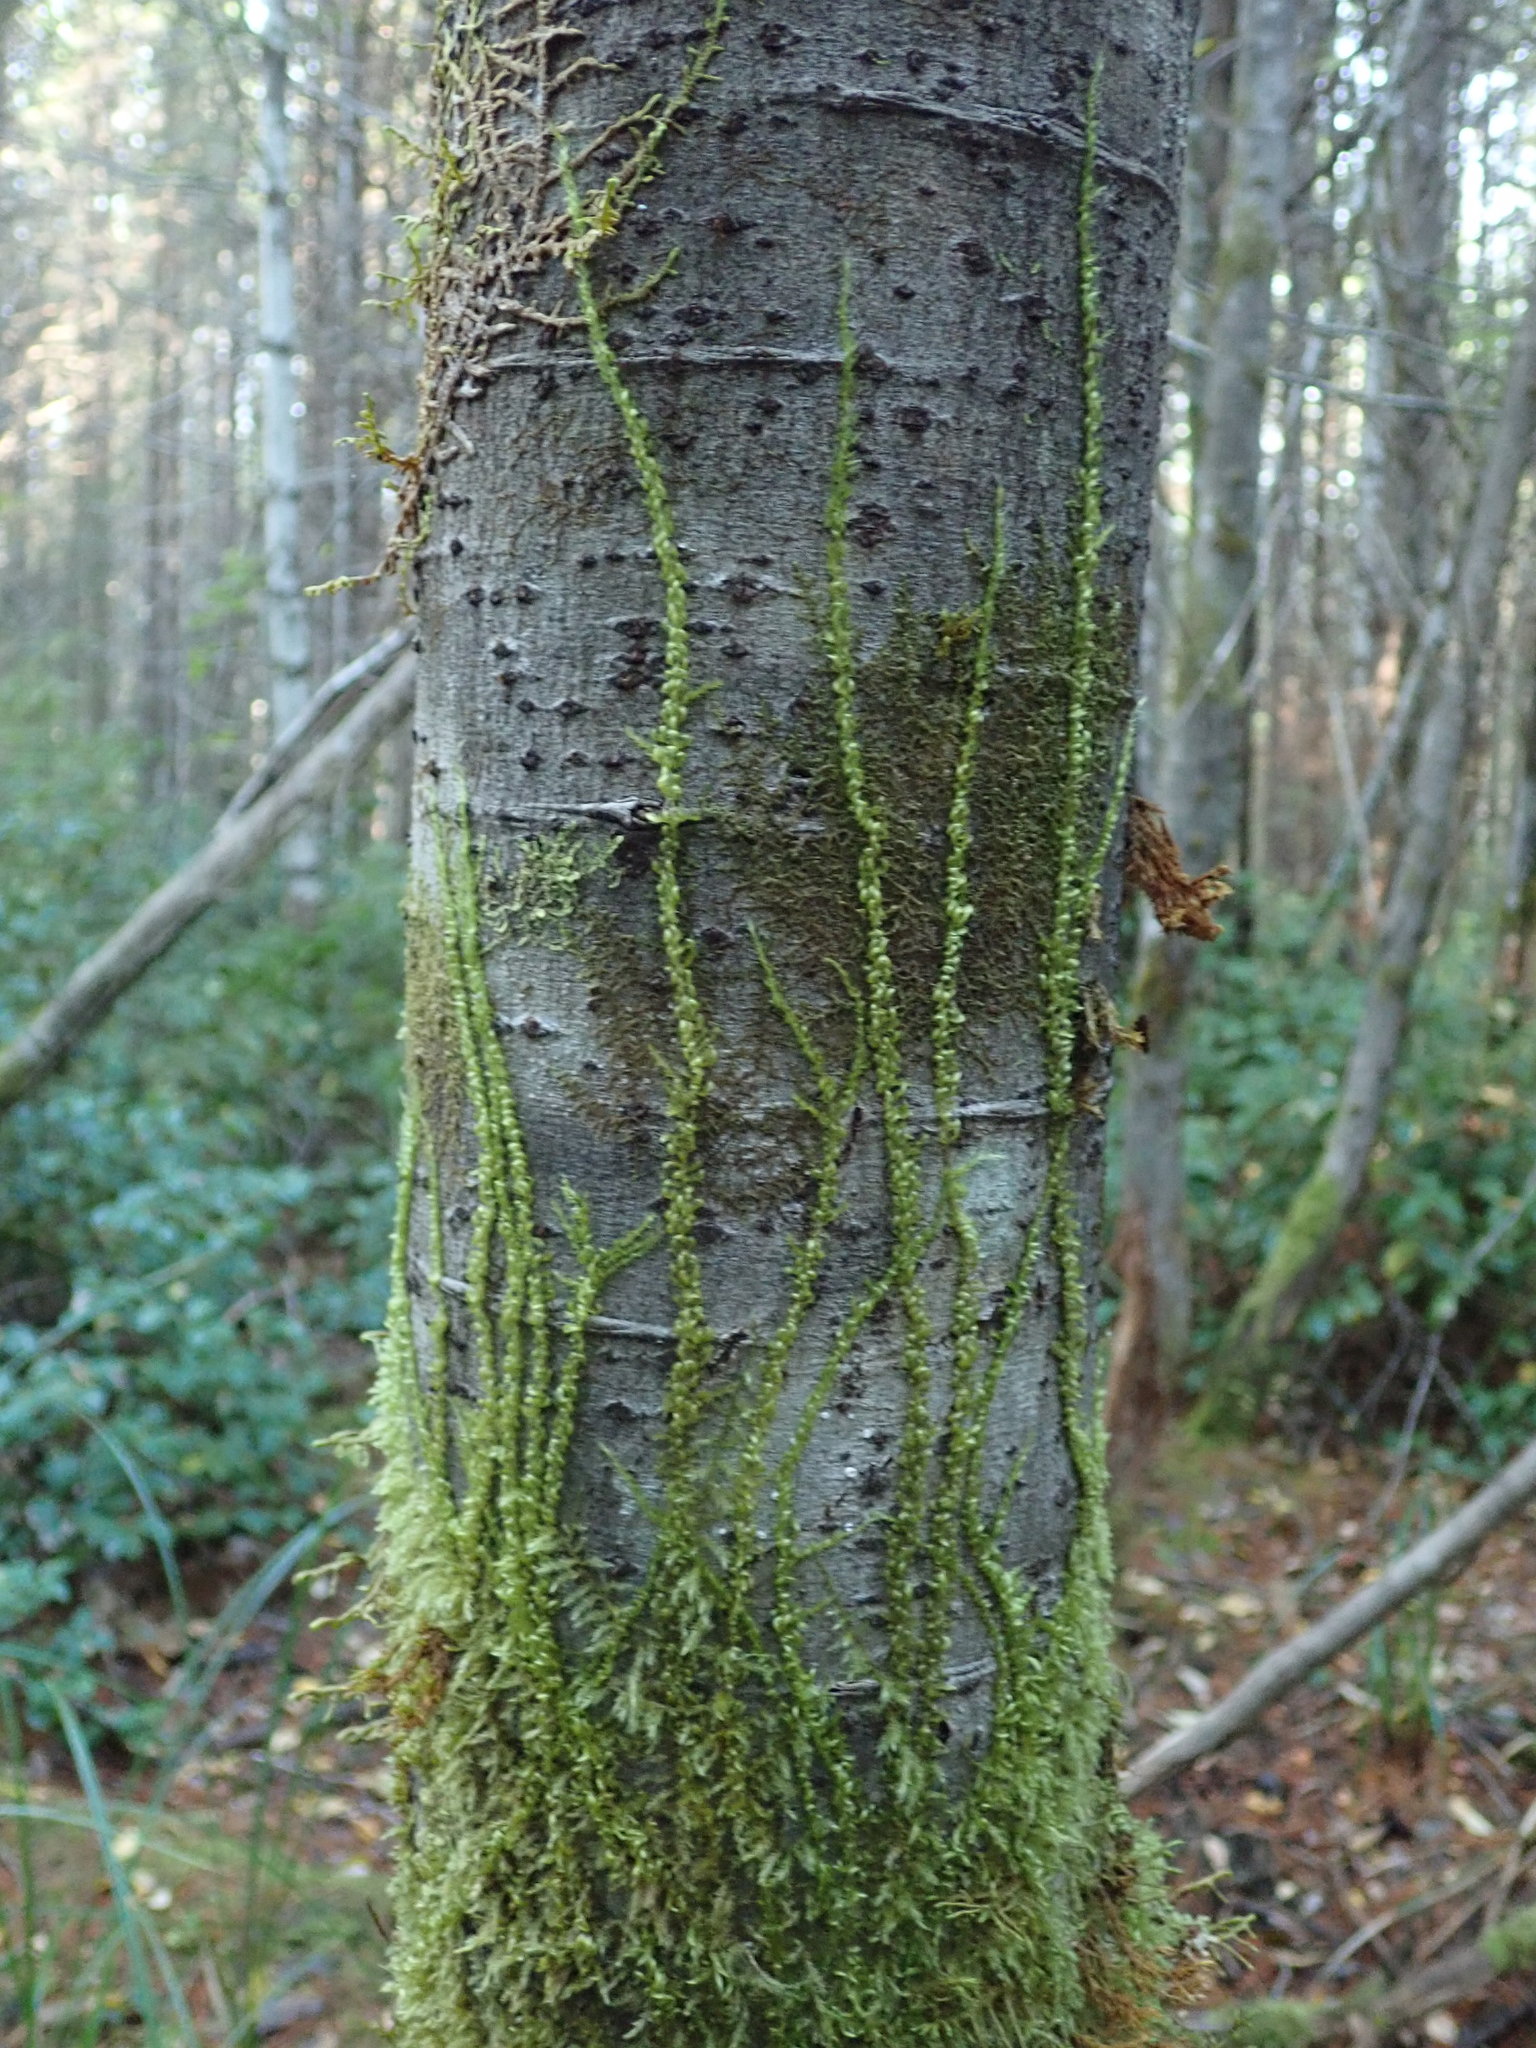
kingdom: Plantae
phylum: Bryophyta
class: Bryopsida
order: Hypnales
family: Brachytheciaceae
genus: Homalothecium
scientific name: Homalothecium nuttallii
